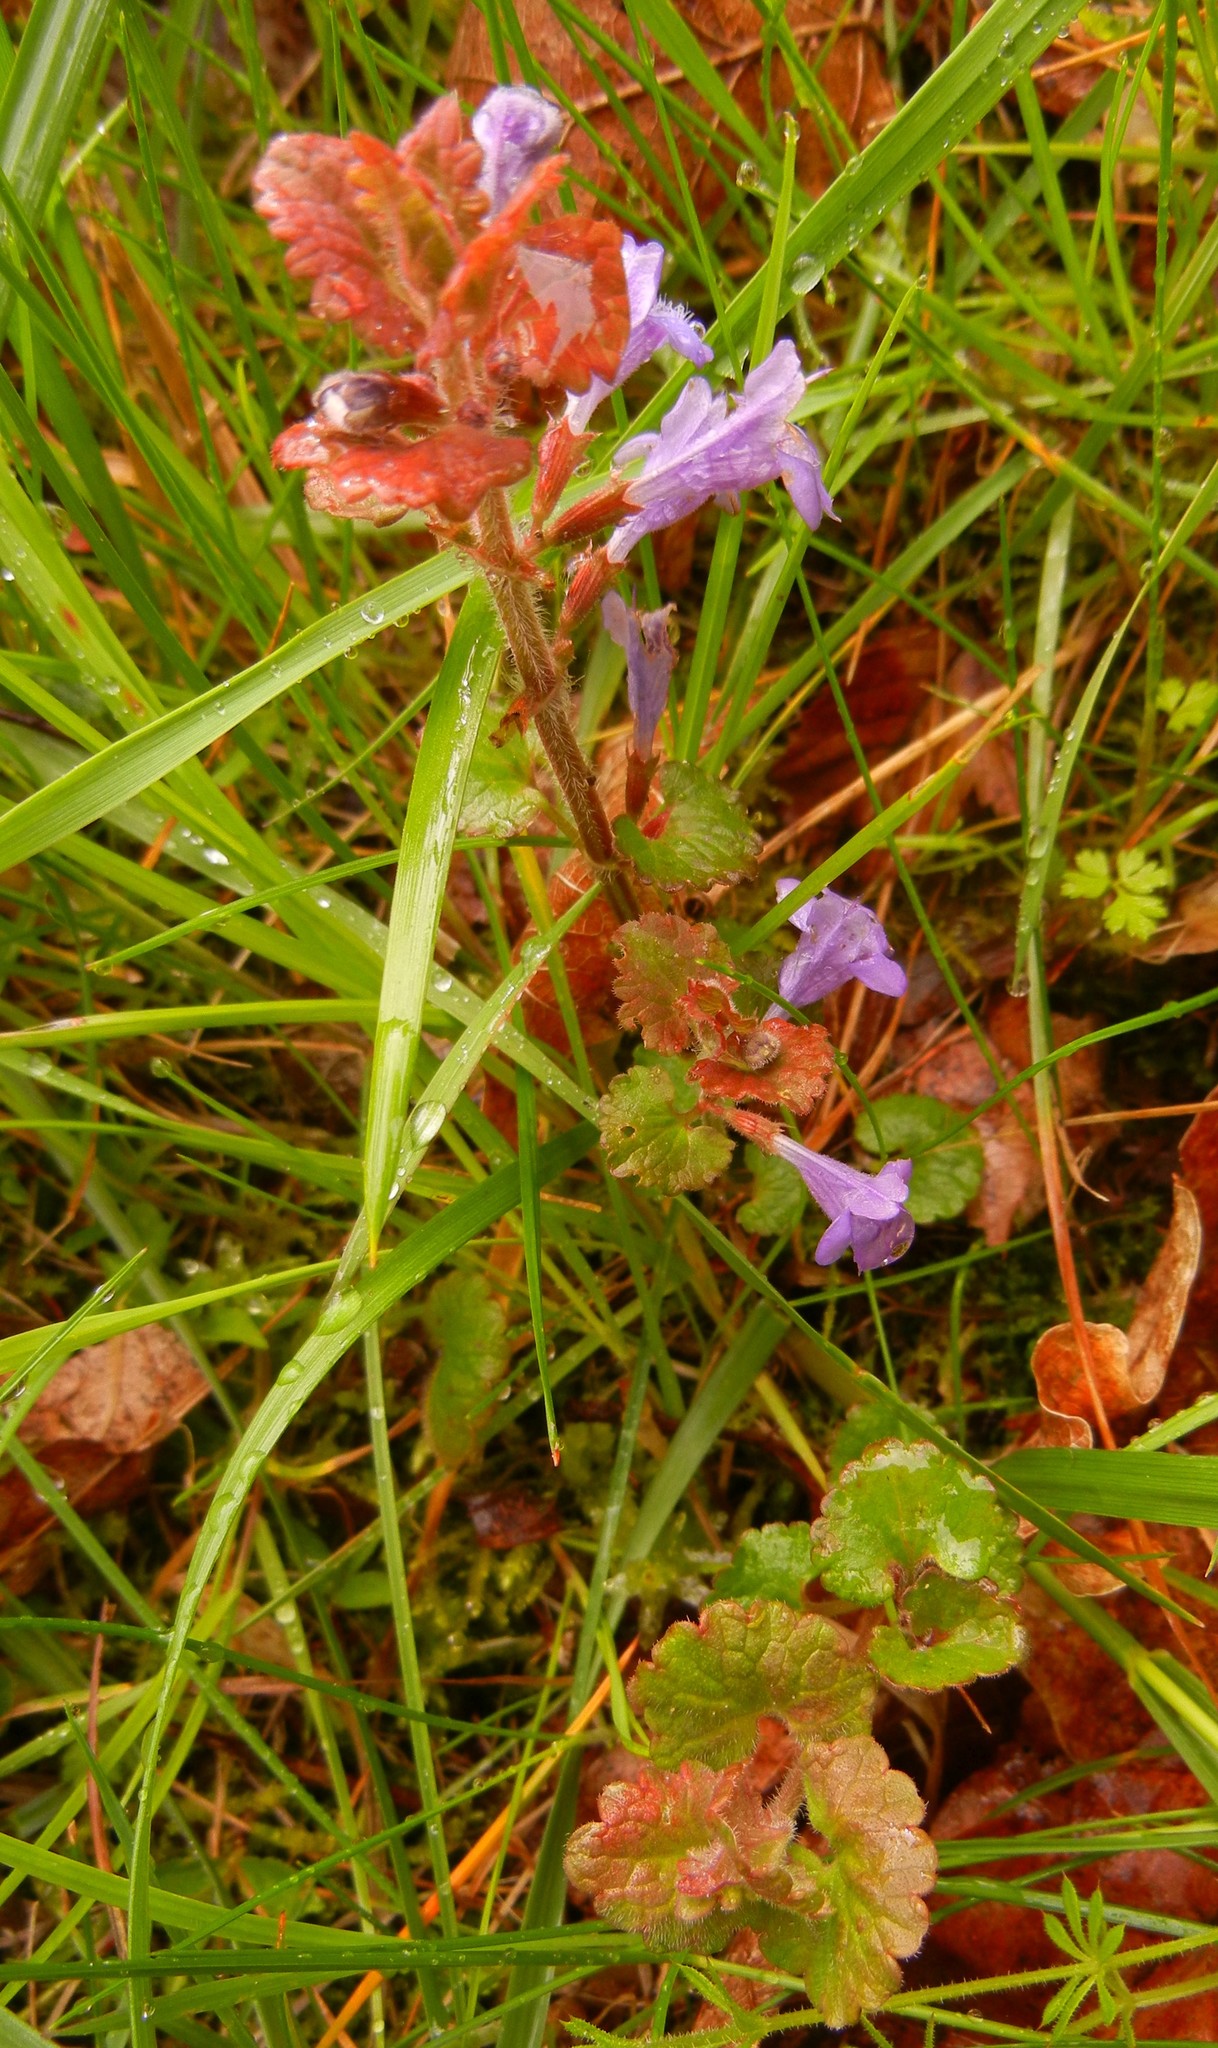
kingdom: Plantae
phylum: Tracheophyta
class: Magnoliopsida
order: Lamiales
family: Lamiaceae
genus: Glechoma
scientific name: Glechoma hederacea
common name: Ground ivy
